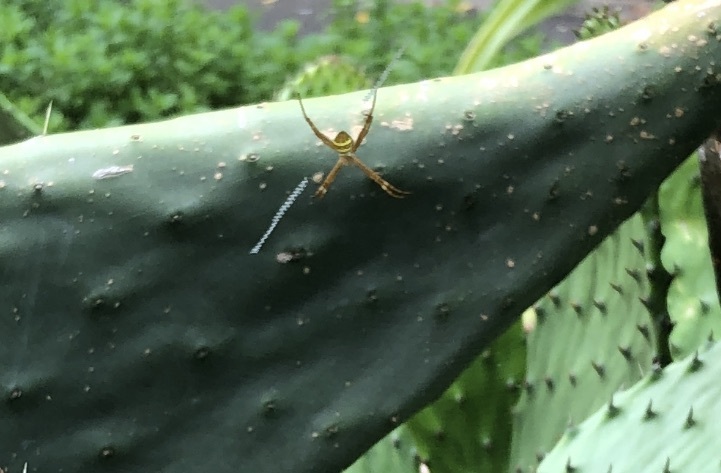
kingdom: Animalia
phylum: Arthropoda
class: Arachnida
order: Araneae
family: Araneidae
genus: Argiope
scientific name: Argiope keyserlingi
